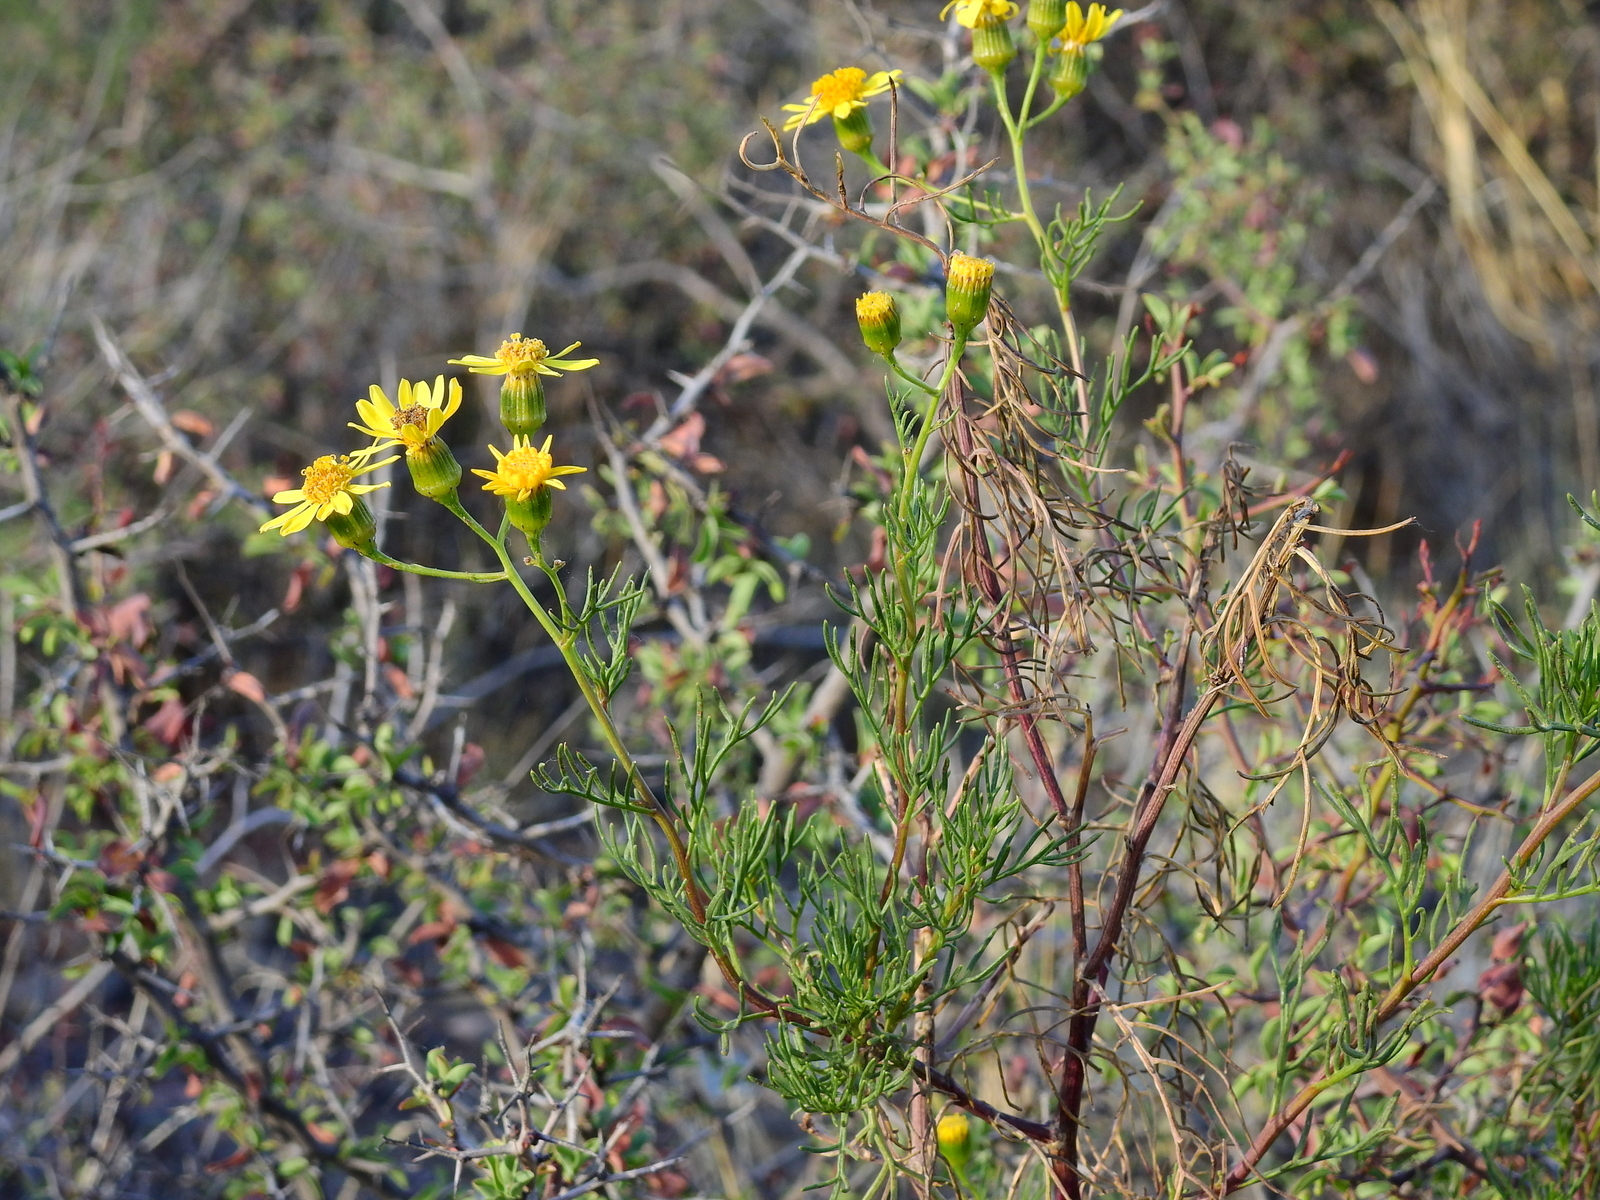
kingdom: Plantae
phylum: Tracheophyta
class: Magnoliopsida
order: Asterales
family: Asteraceae
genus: Senecio
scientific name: Senecio subulatus
